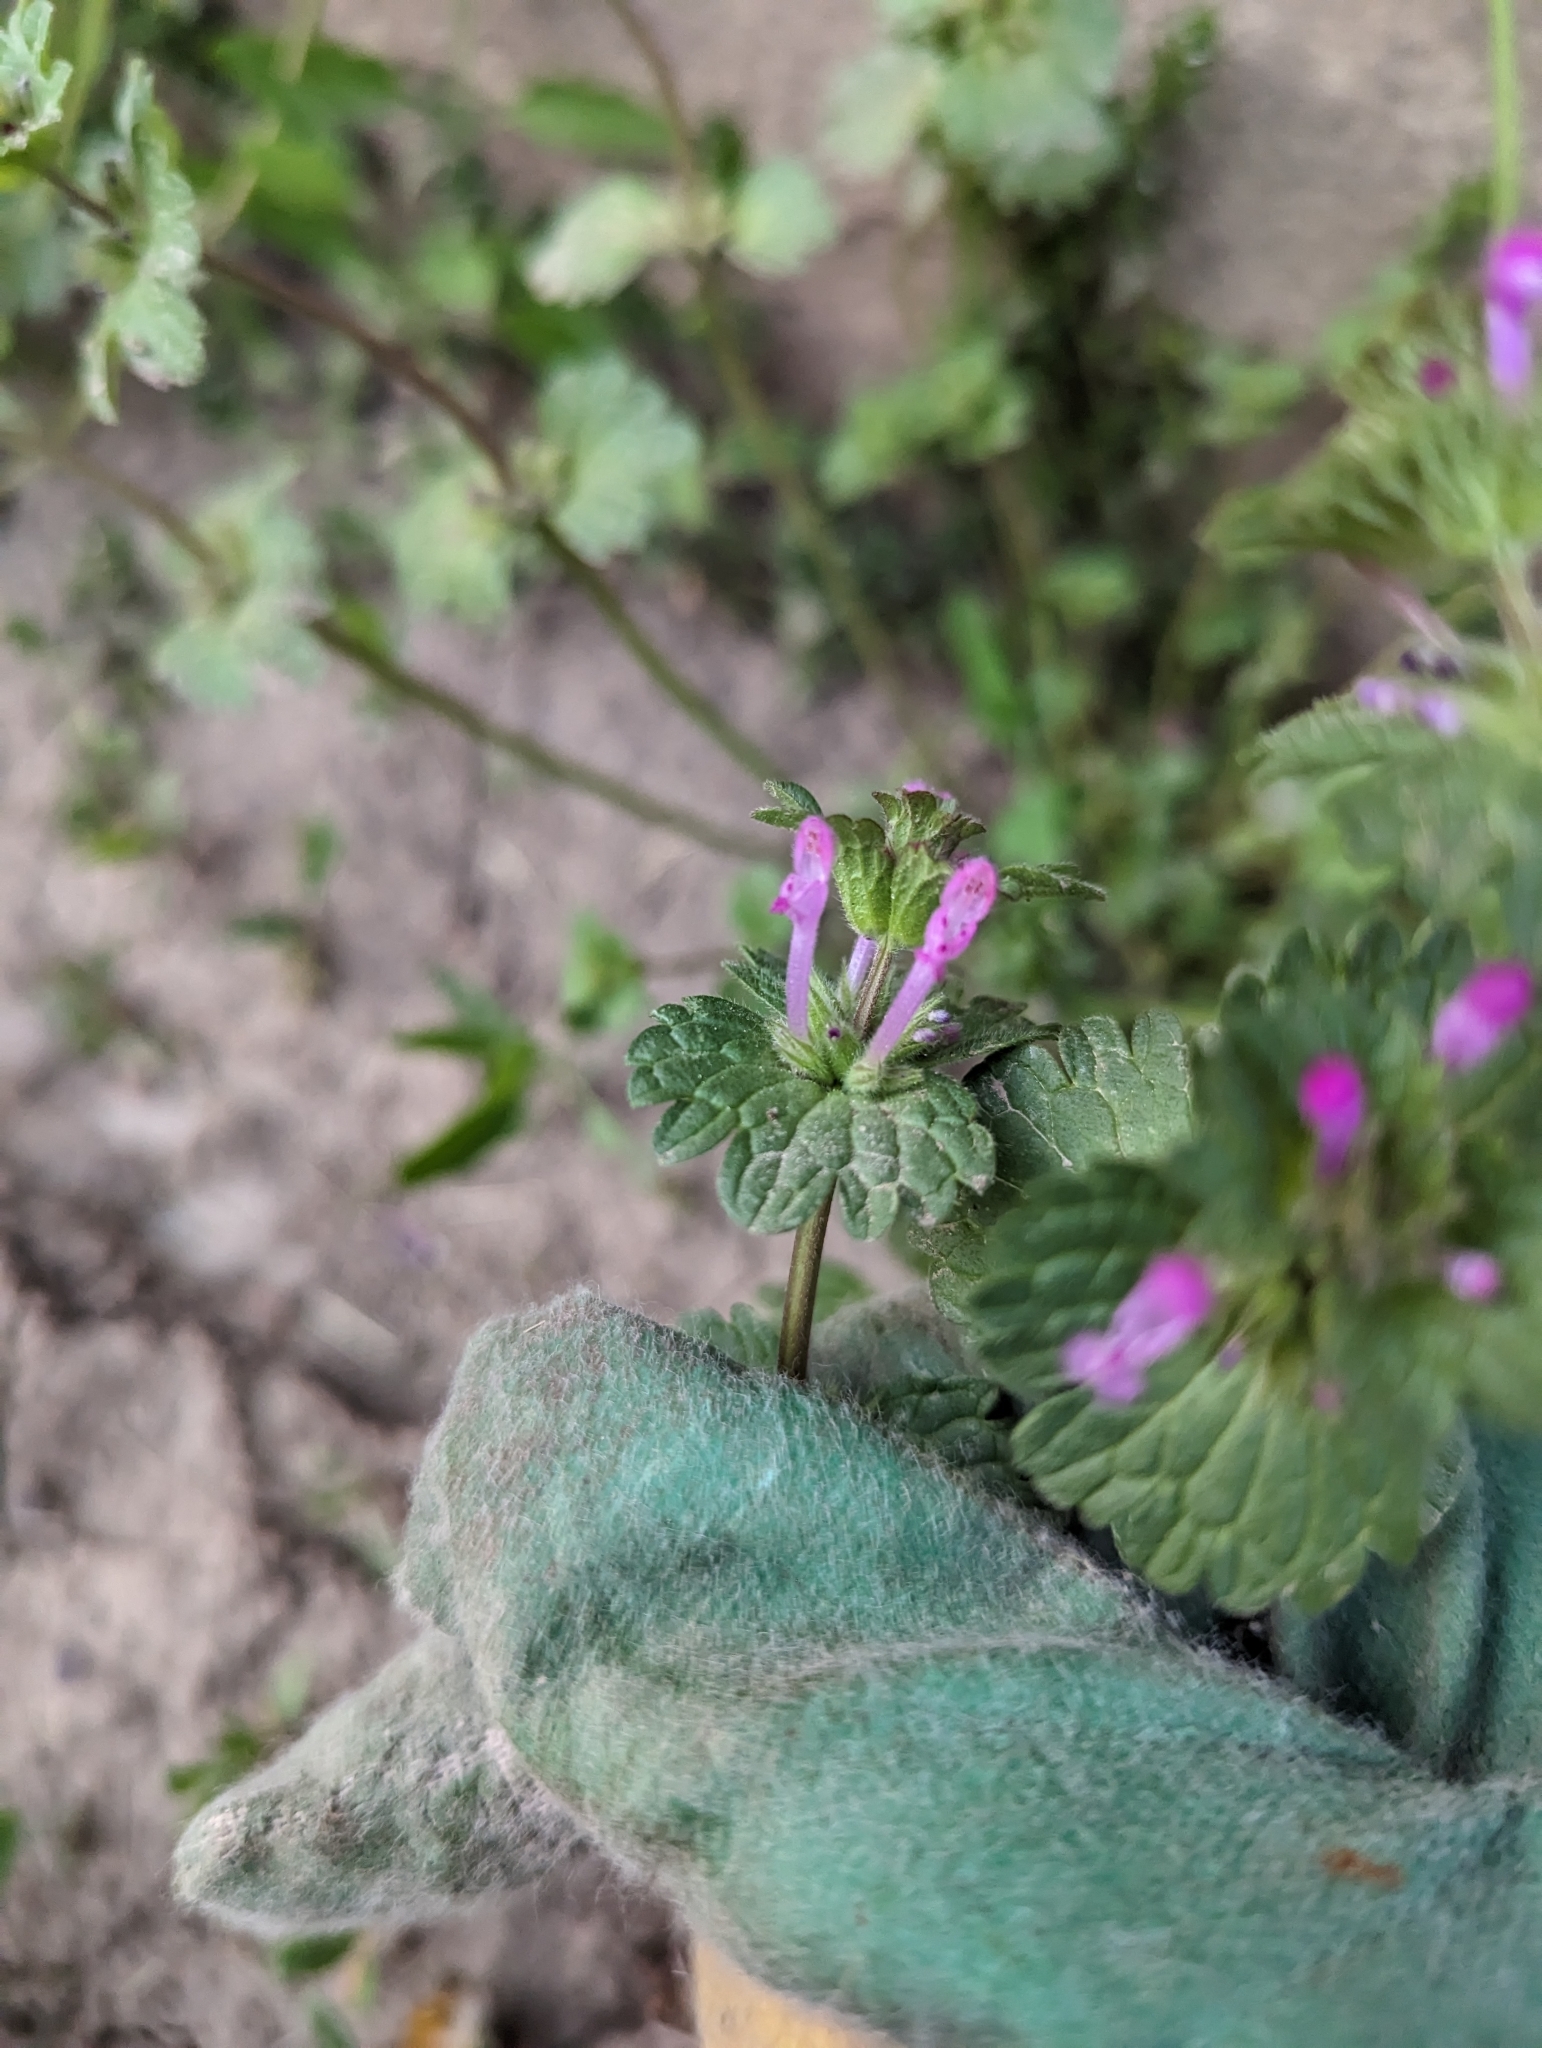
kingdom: Plantae
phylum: Tracheophyta
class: Magnoliopsida
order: Lamiales
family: Lamiaceae
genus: Lamium
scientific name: Lamium amplexicaule
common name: Henbit dead-nettle
